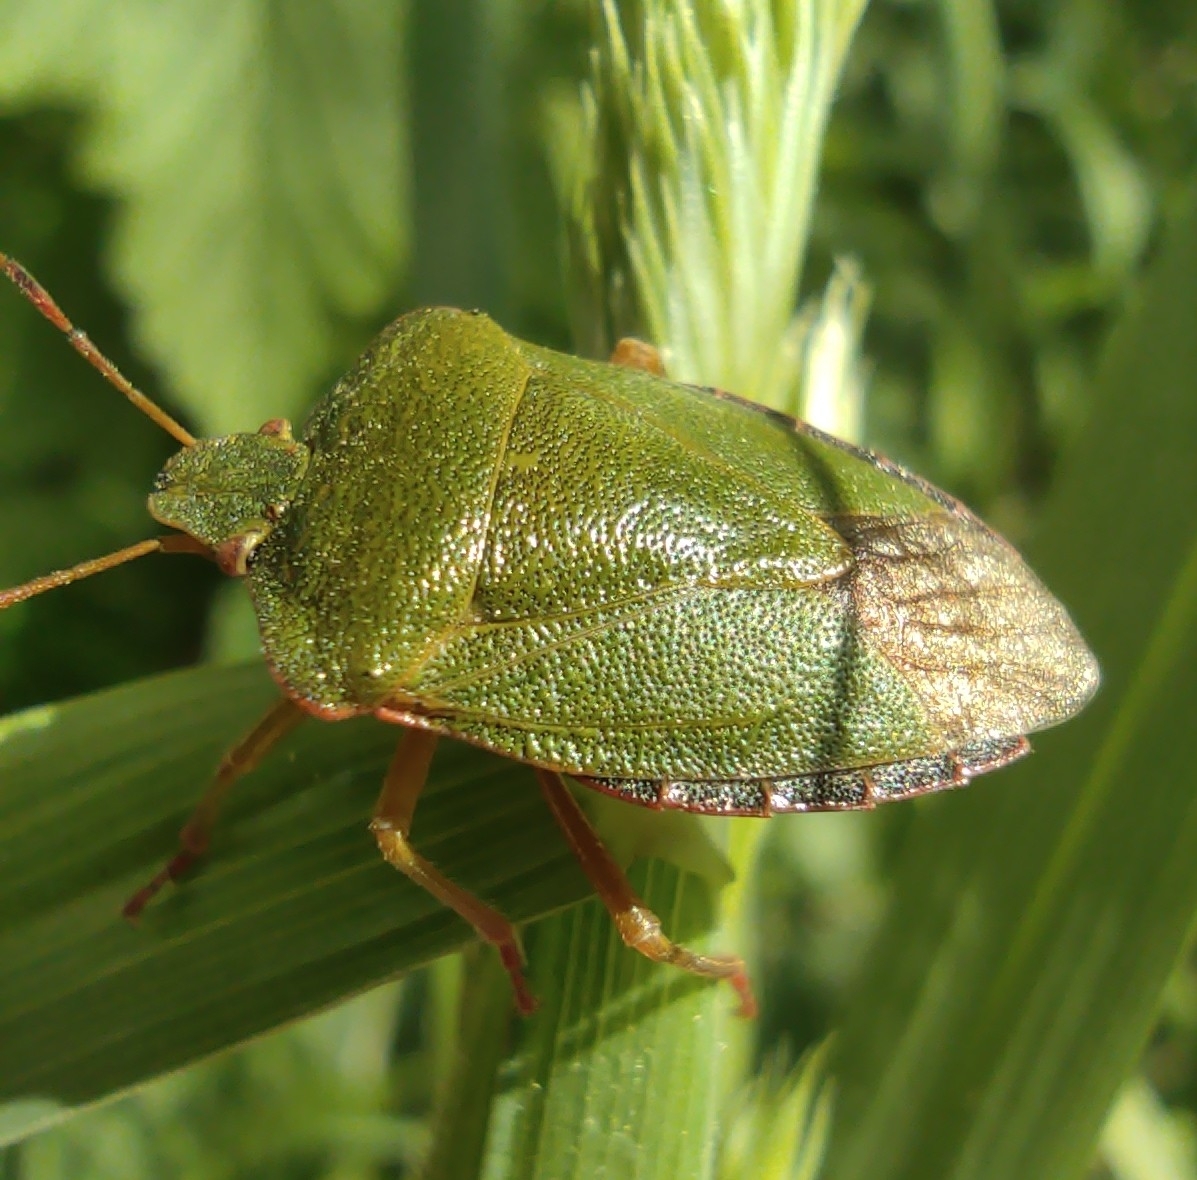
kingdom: Animalia
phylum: Arthropoda
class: Insecta
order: Hemiptera
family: Pentatomidae
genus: Palomena
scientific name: Palomena prasina
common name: Green shieldbug
